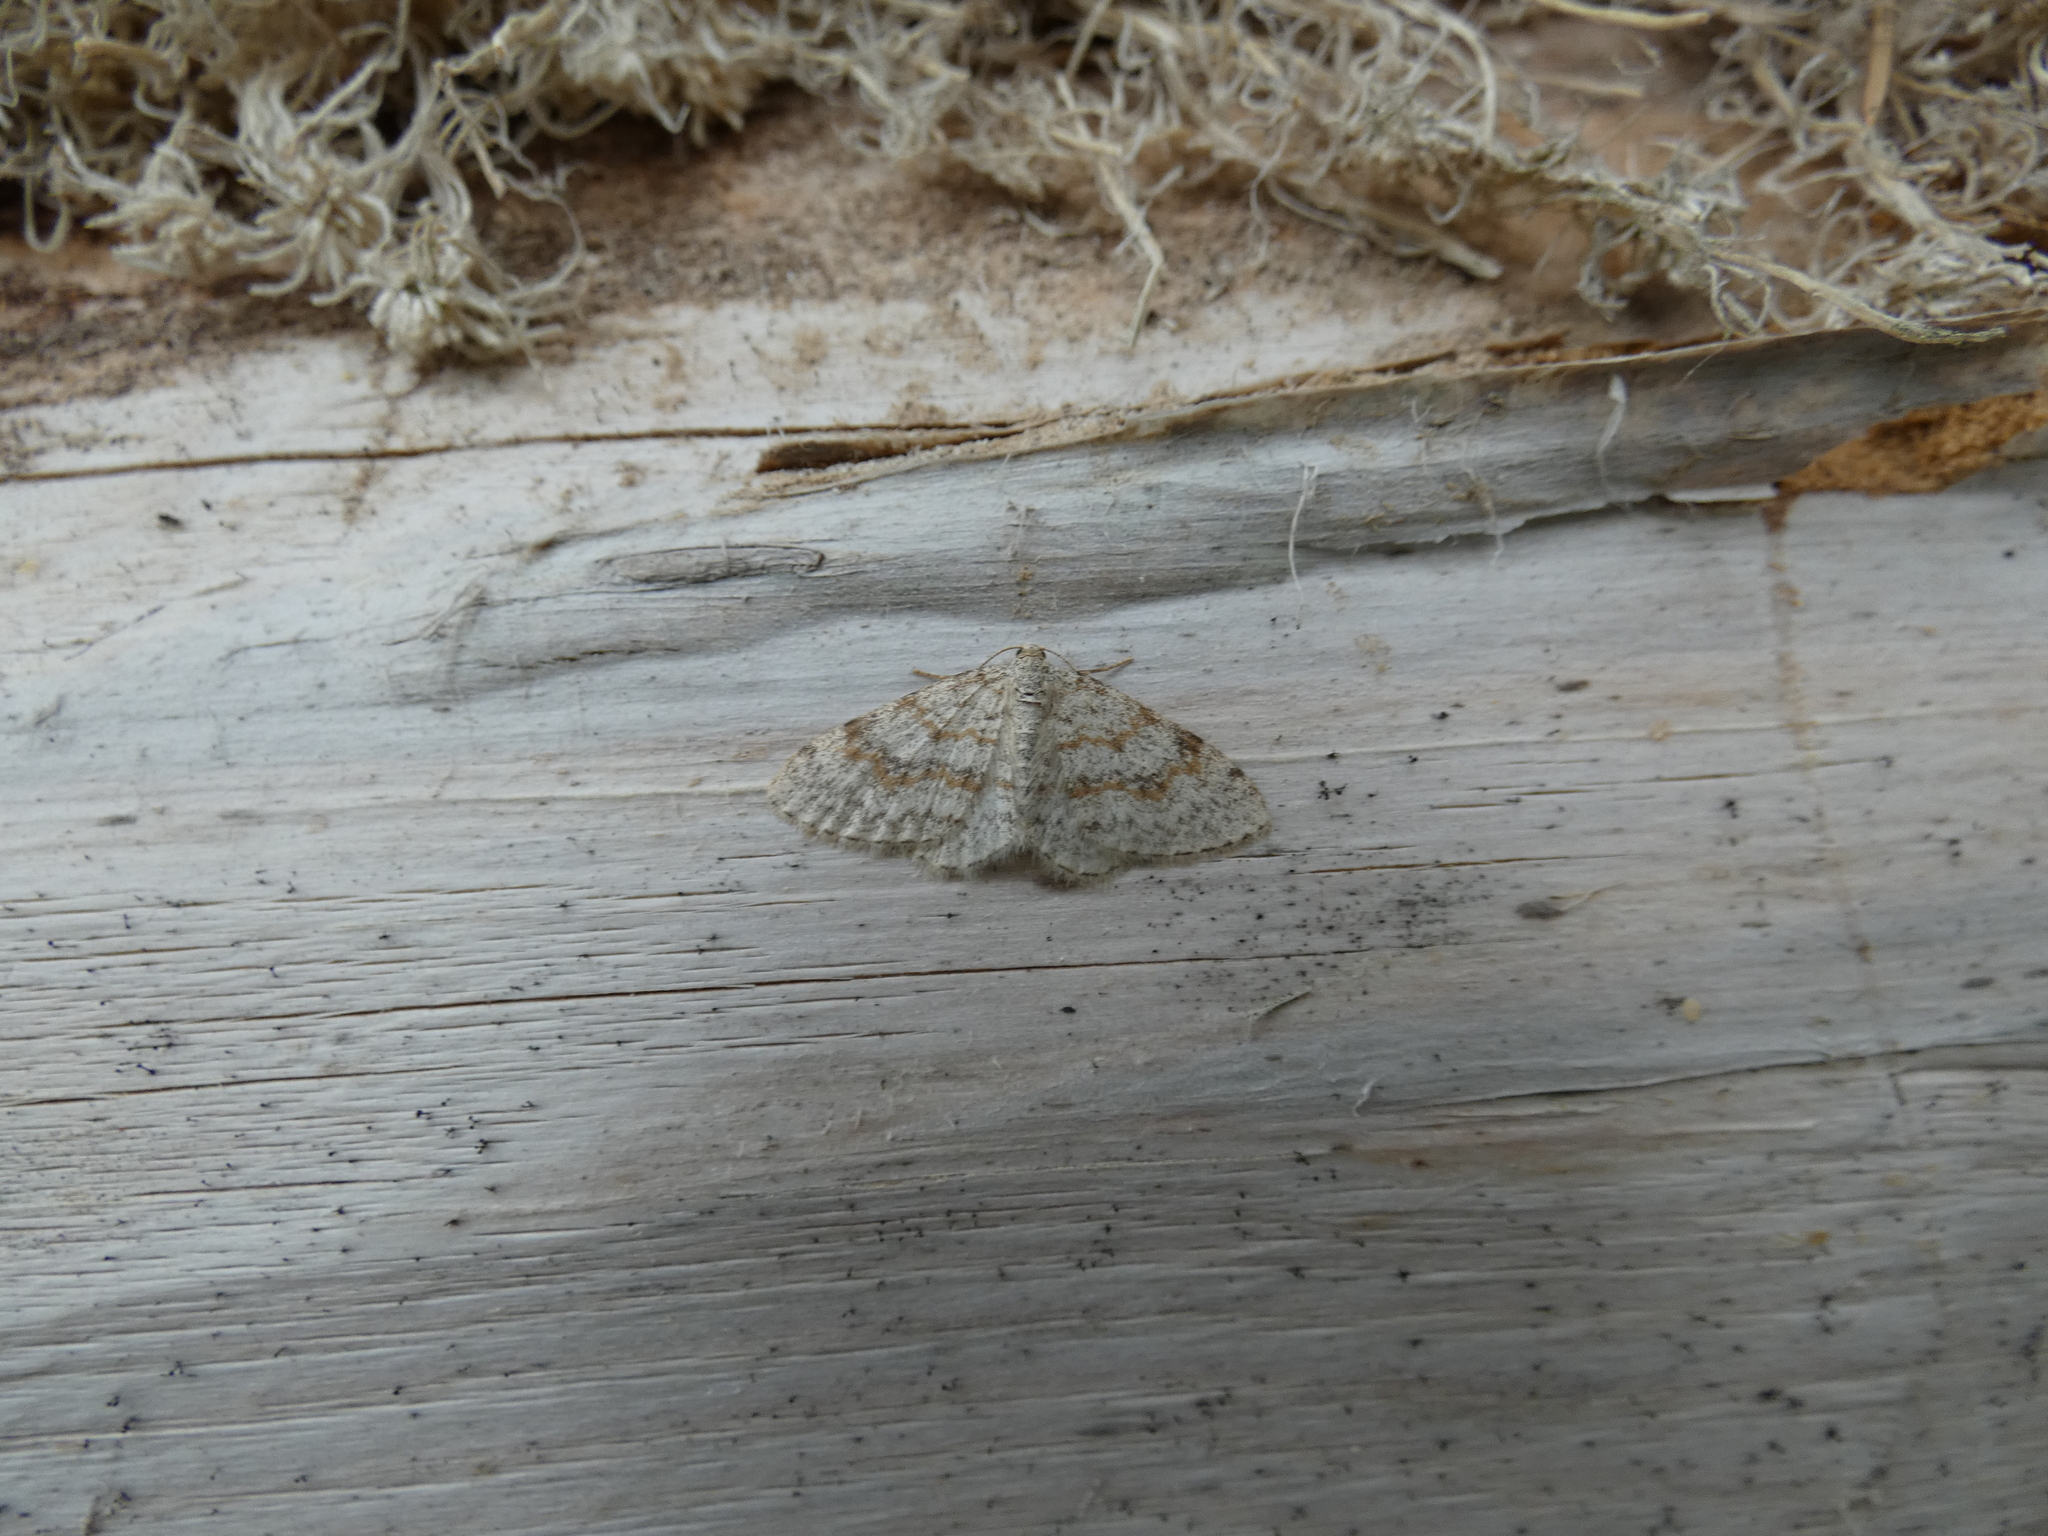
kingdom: Animalia
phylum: Arthropoda
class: Insecta
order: Lepidoptera
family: Geometridae
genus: Hydrelia
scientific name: Hydrelia sylvata
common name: Waved carpet
